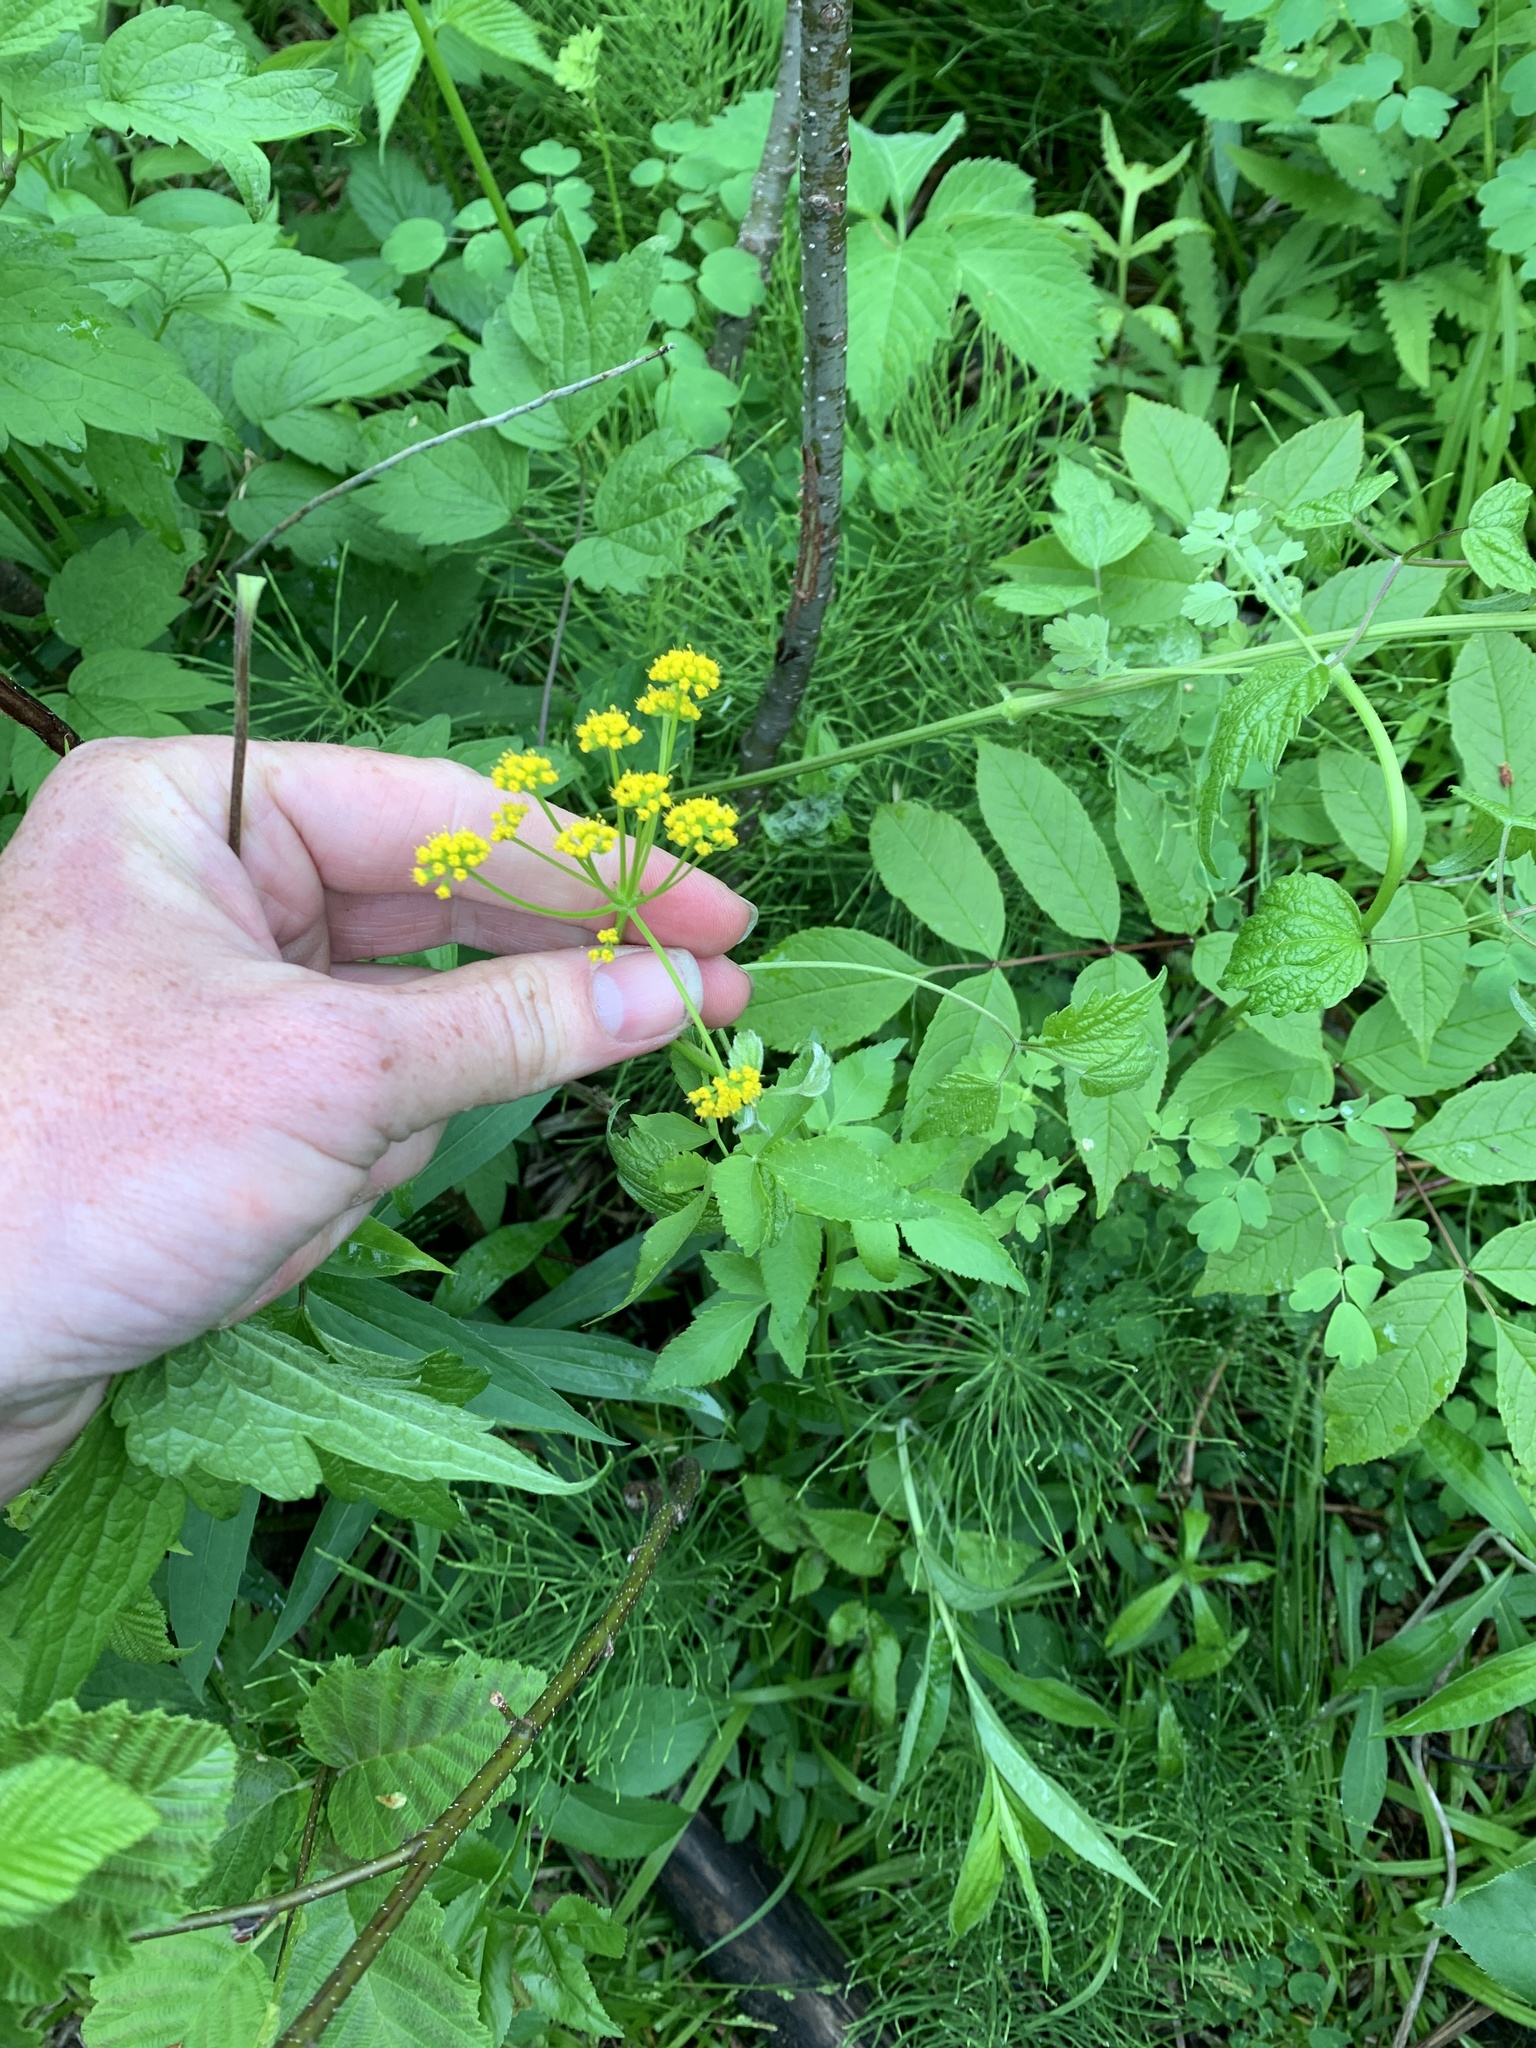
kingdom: Plantae
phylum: Tracheophyta
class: Magnoliopsida
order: Apiales
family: Apiaceae
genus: Zizia
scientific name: Zizia aurea
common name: Golden alexanders
